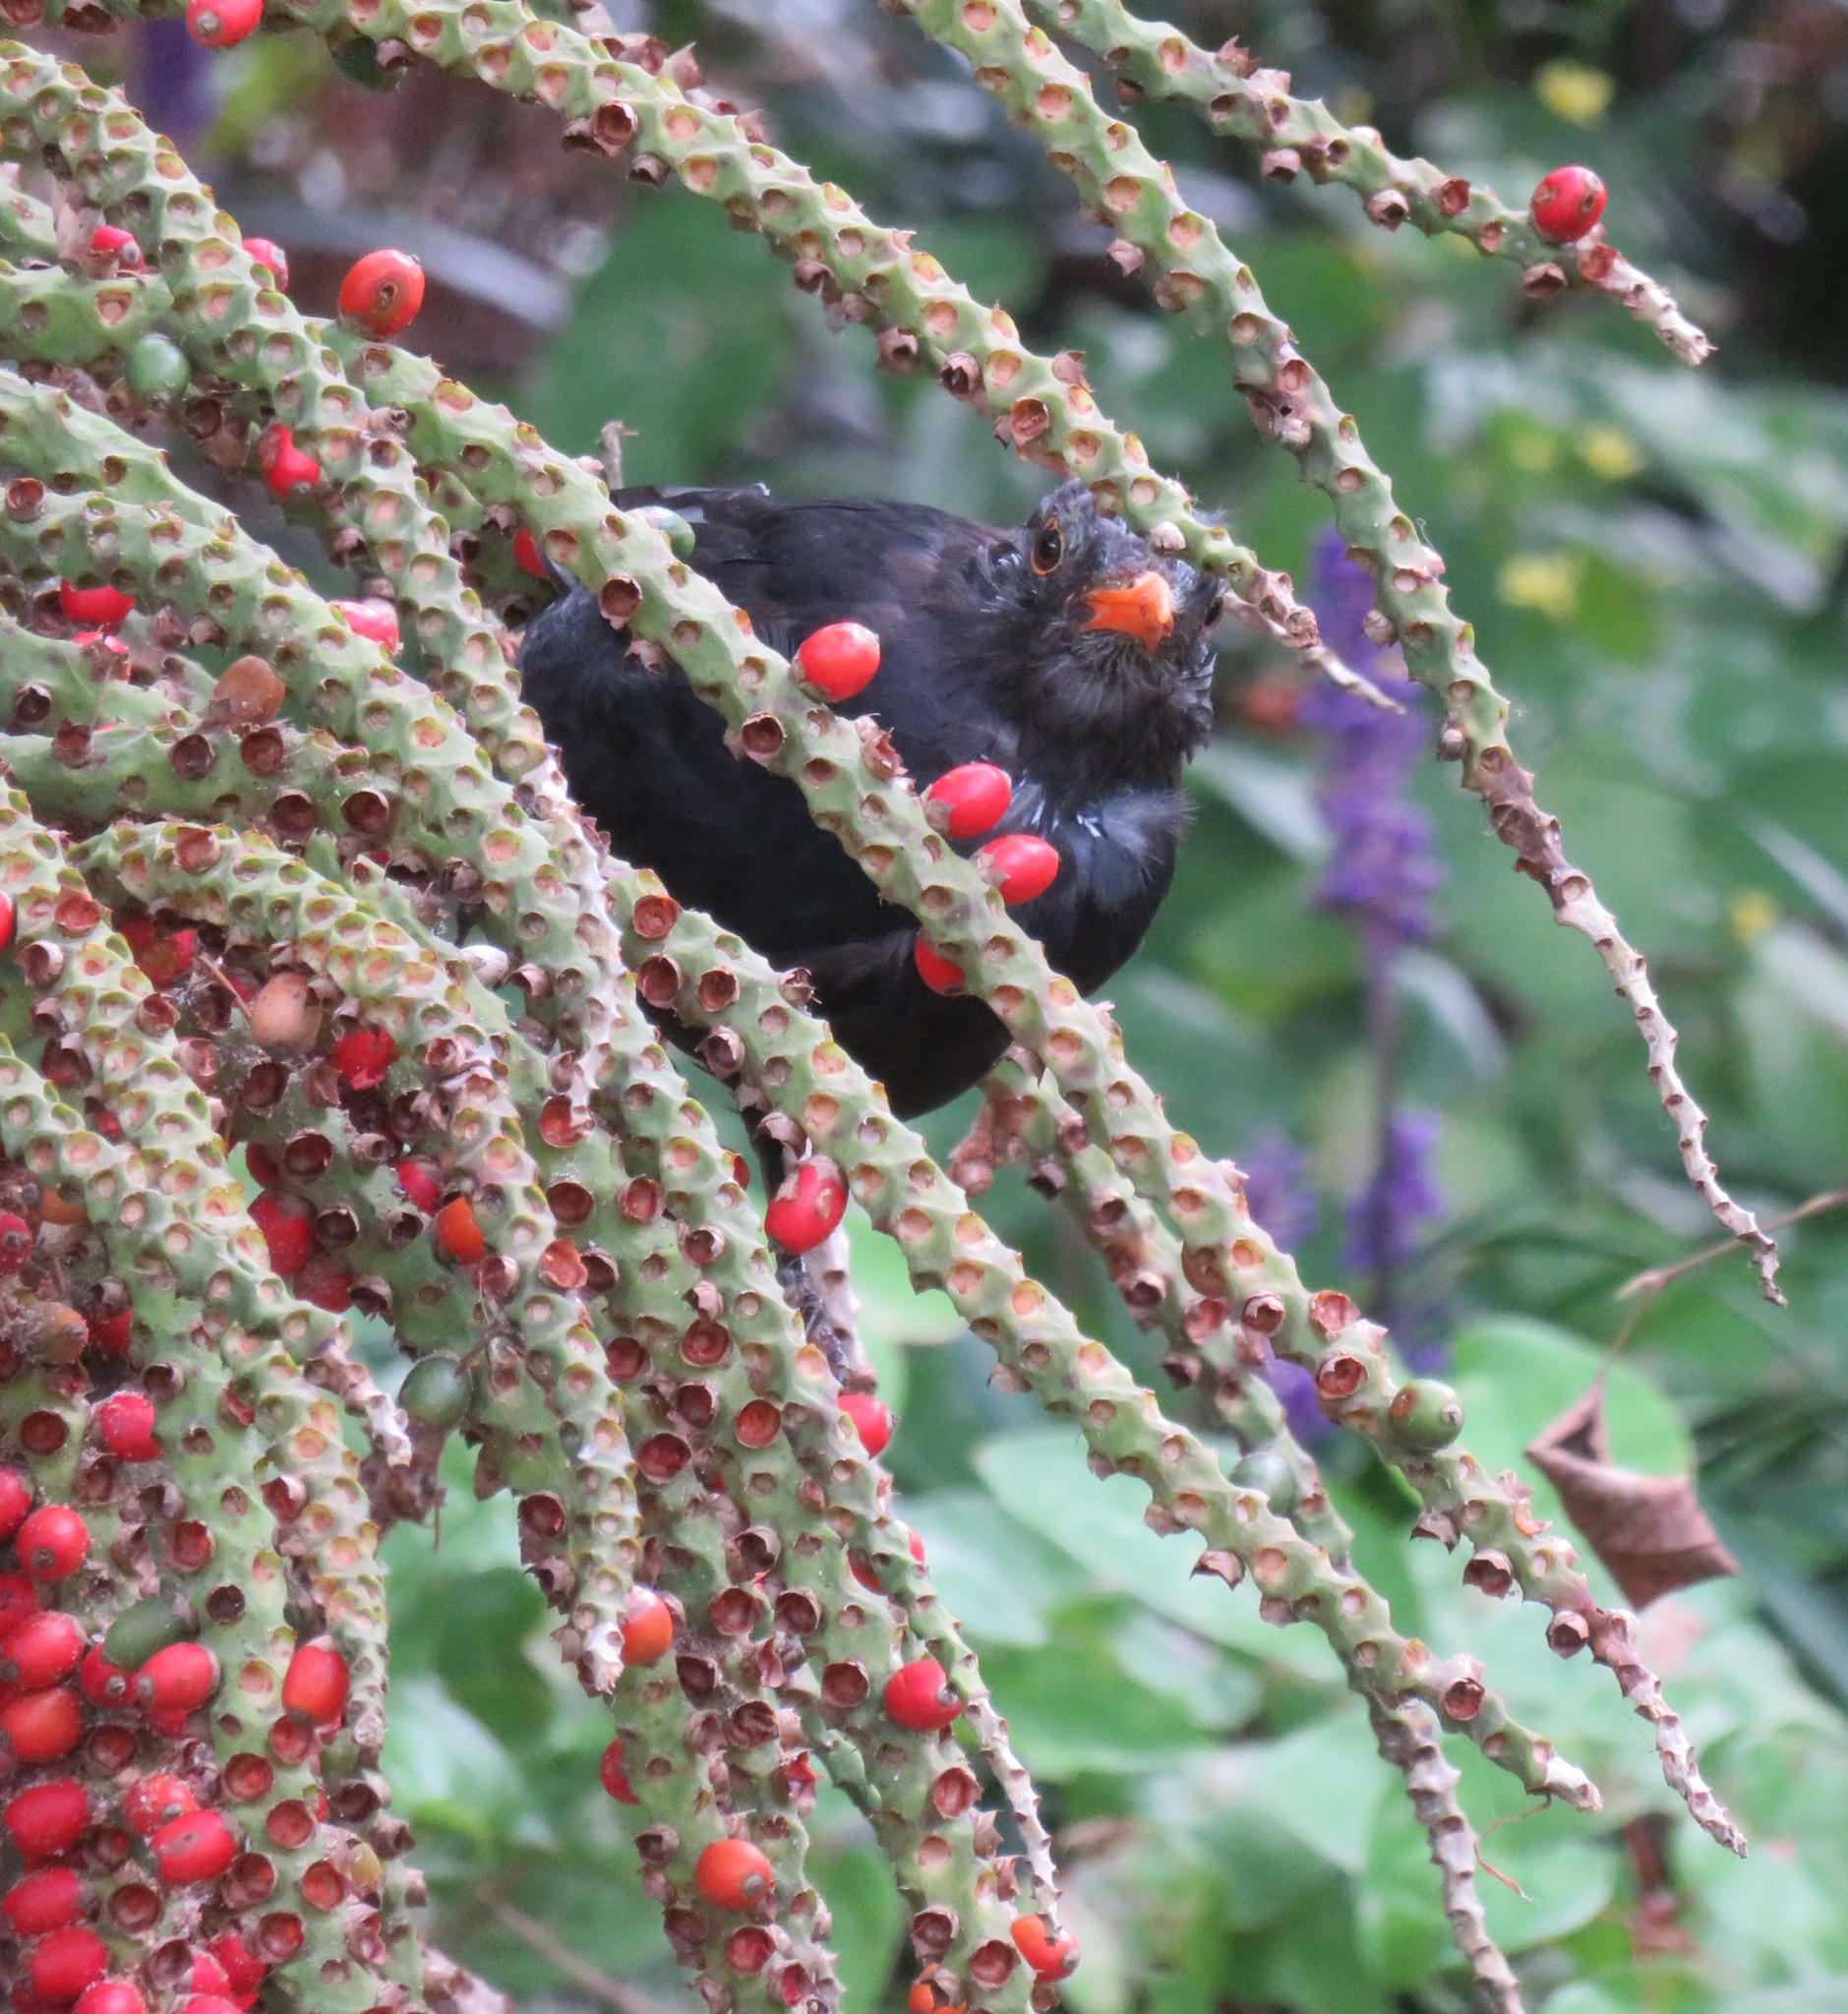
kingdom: Animalia
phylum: Chordata
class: Aves
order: Passeriformes
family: Turdidae
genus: Turdus
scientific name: Turdus merula
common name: Common blackbird
